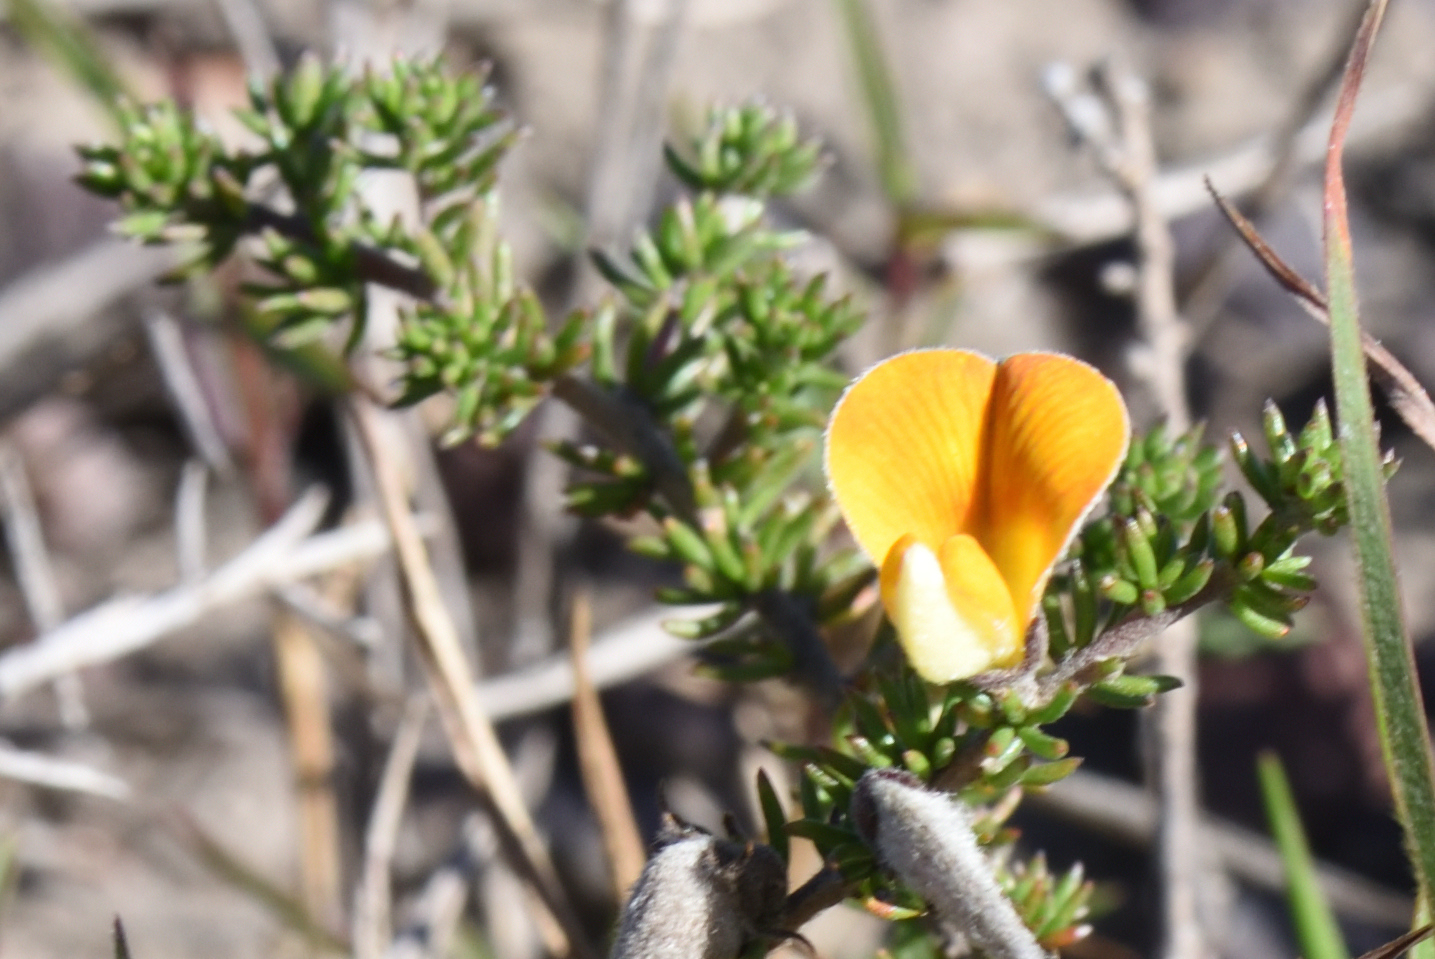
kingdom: Plantae
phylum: Tracheophyta
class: Magnoliopsida
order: Fabales
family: Fabaceae
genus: Aspalathus
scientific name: Aspalathus chortophila
